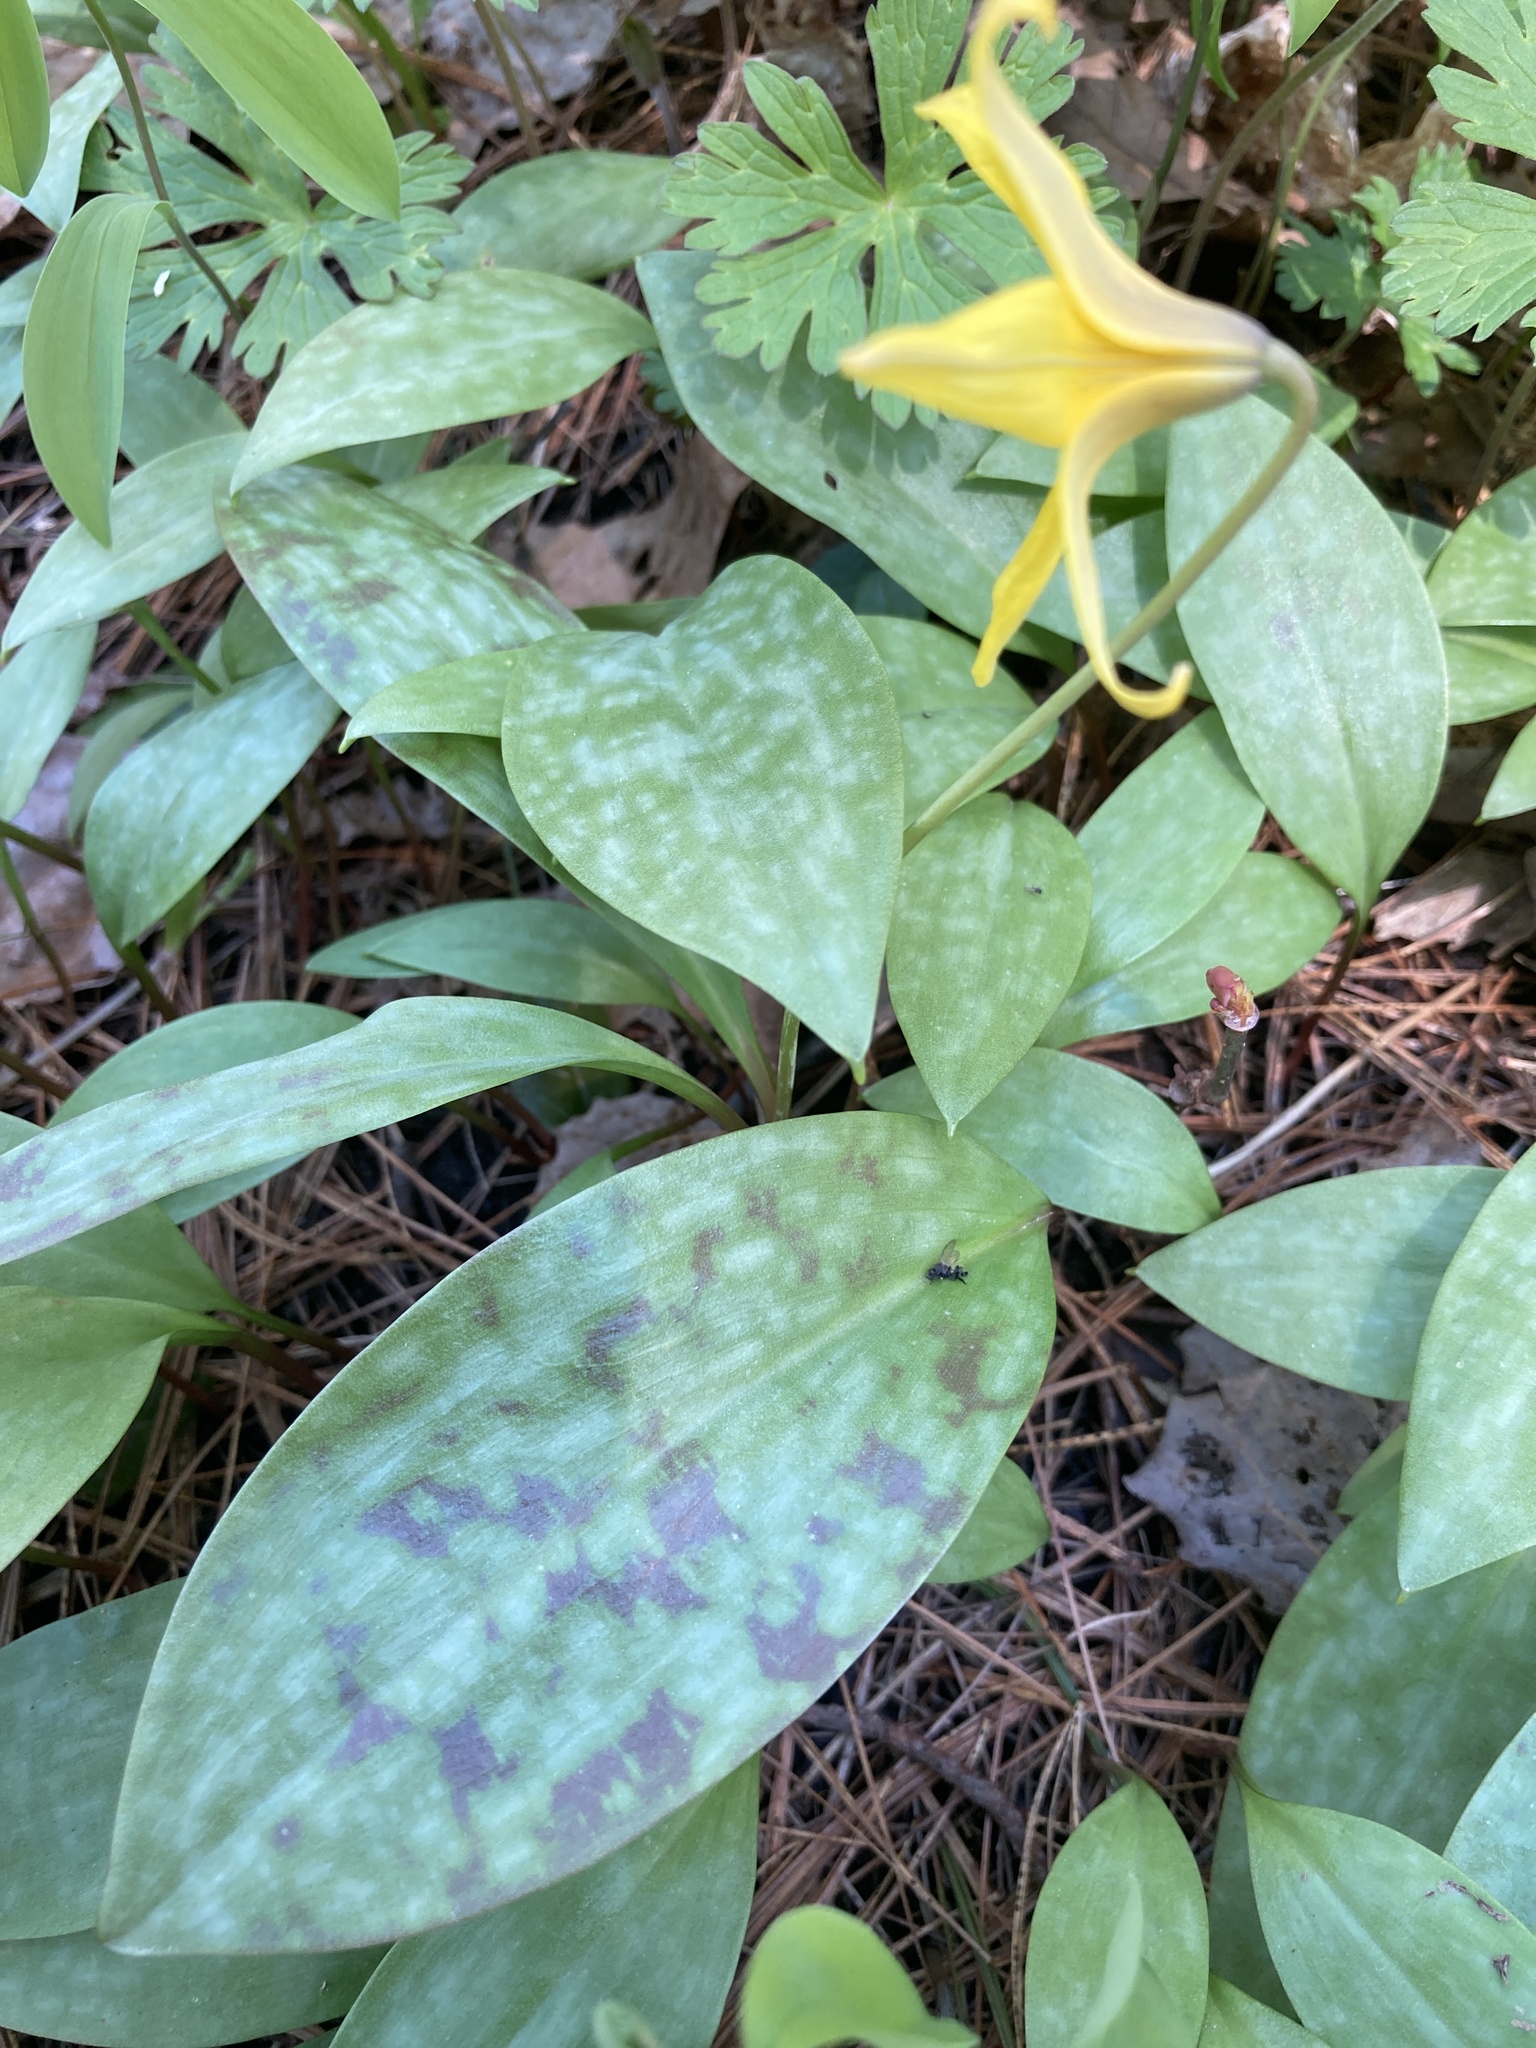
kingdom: Plantae
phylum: Tracheophyta
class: Liliopsida
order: Liliales
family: Liliaceae
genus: Erythronium
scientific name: Erythronium americanum
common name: Yellow adder's-tongue
